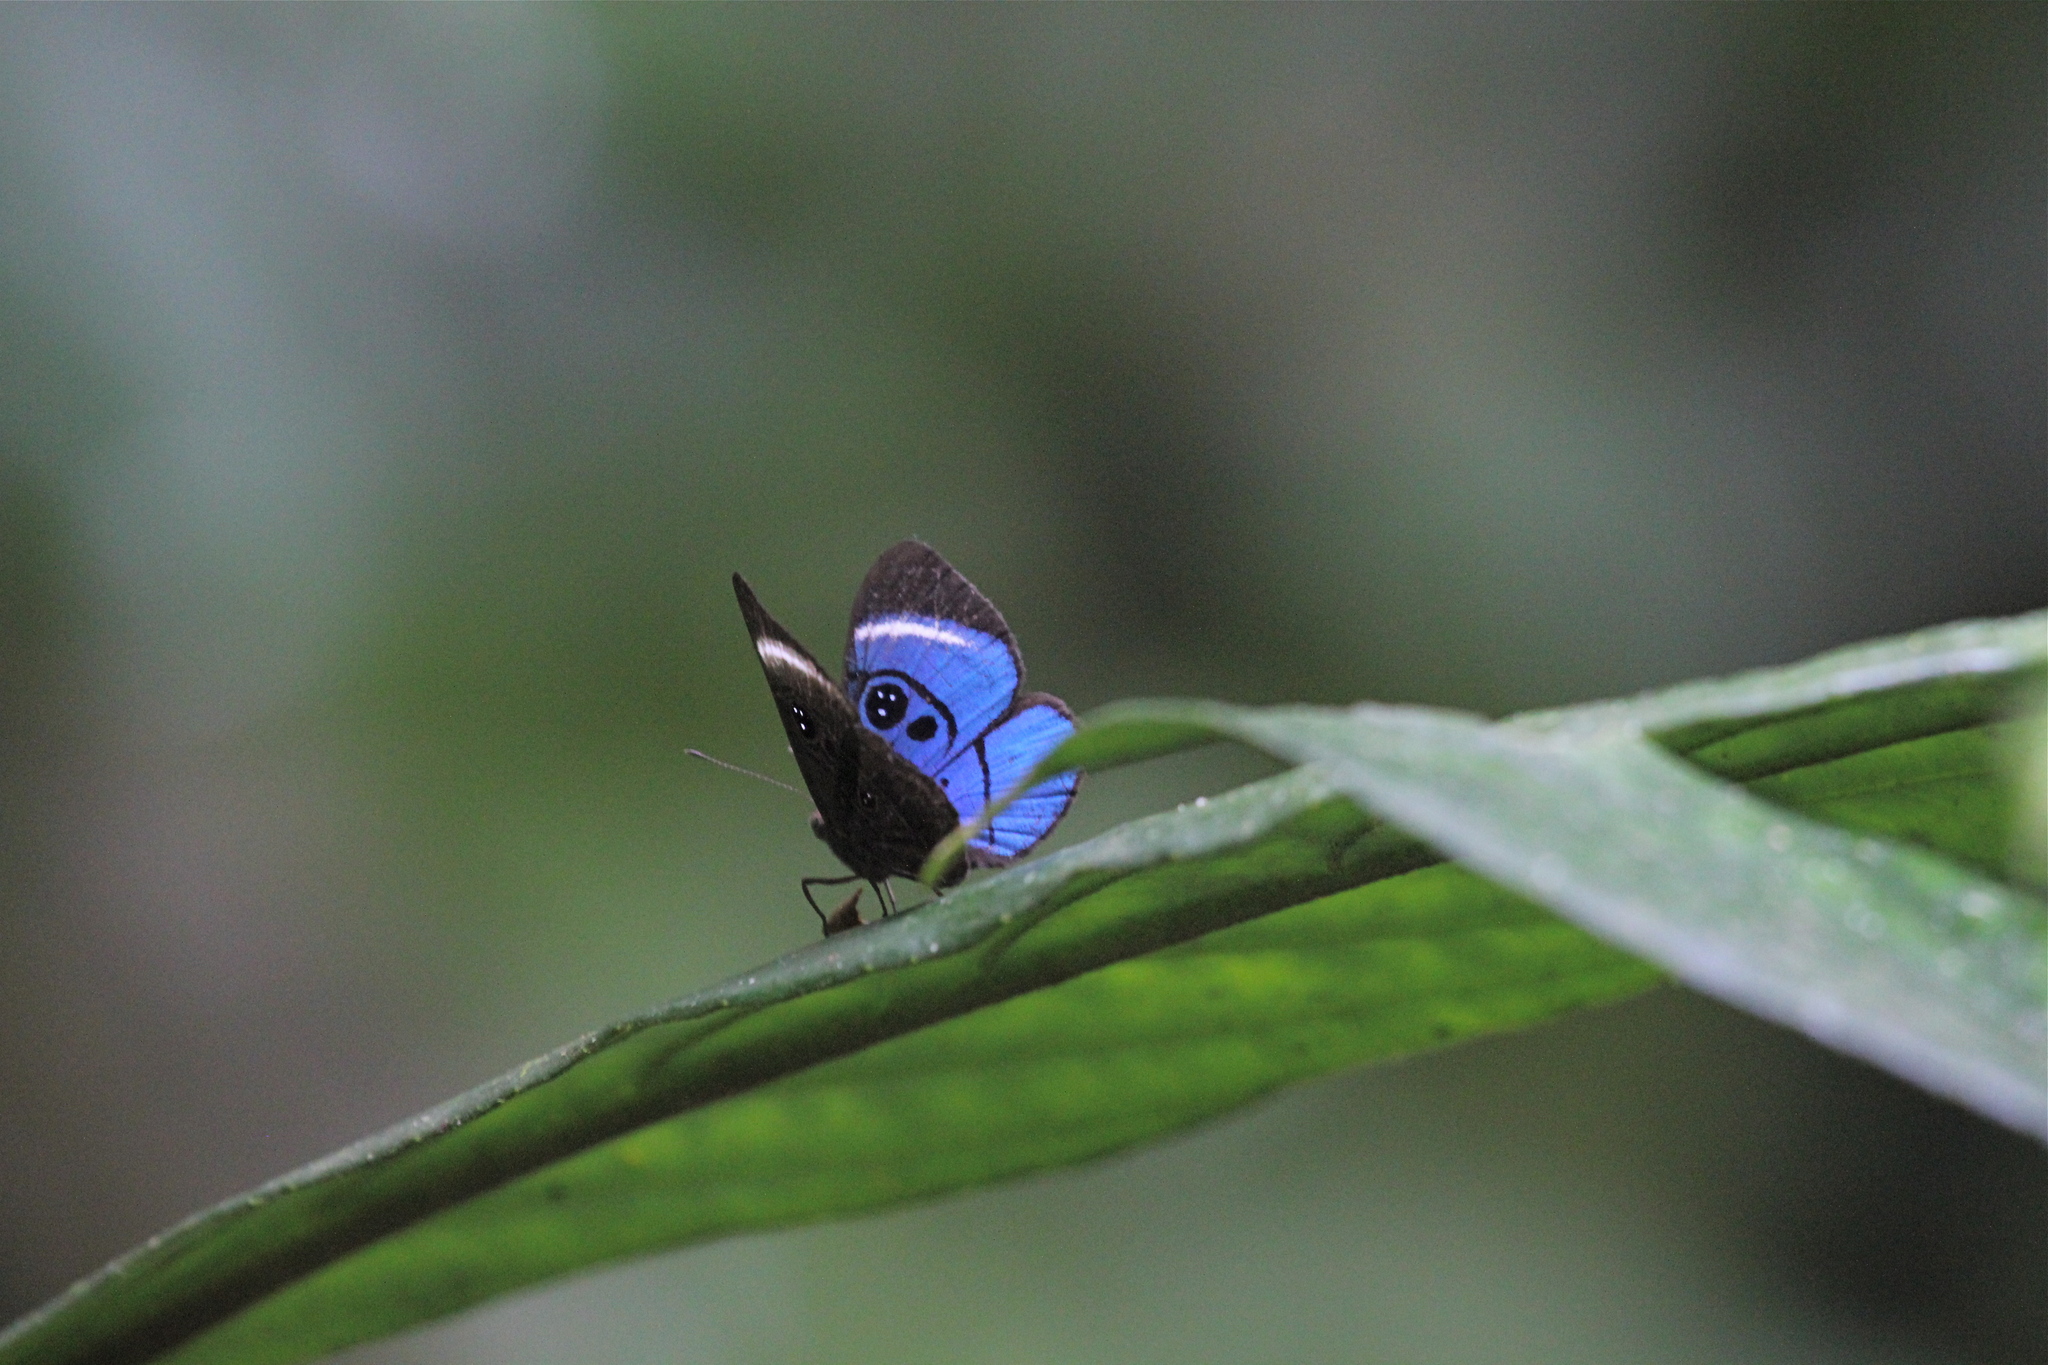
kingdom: Animalia
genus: Mesosemia
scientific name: Mesosemia loruhama
